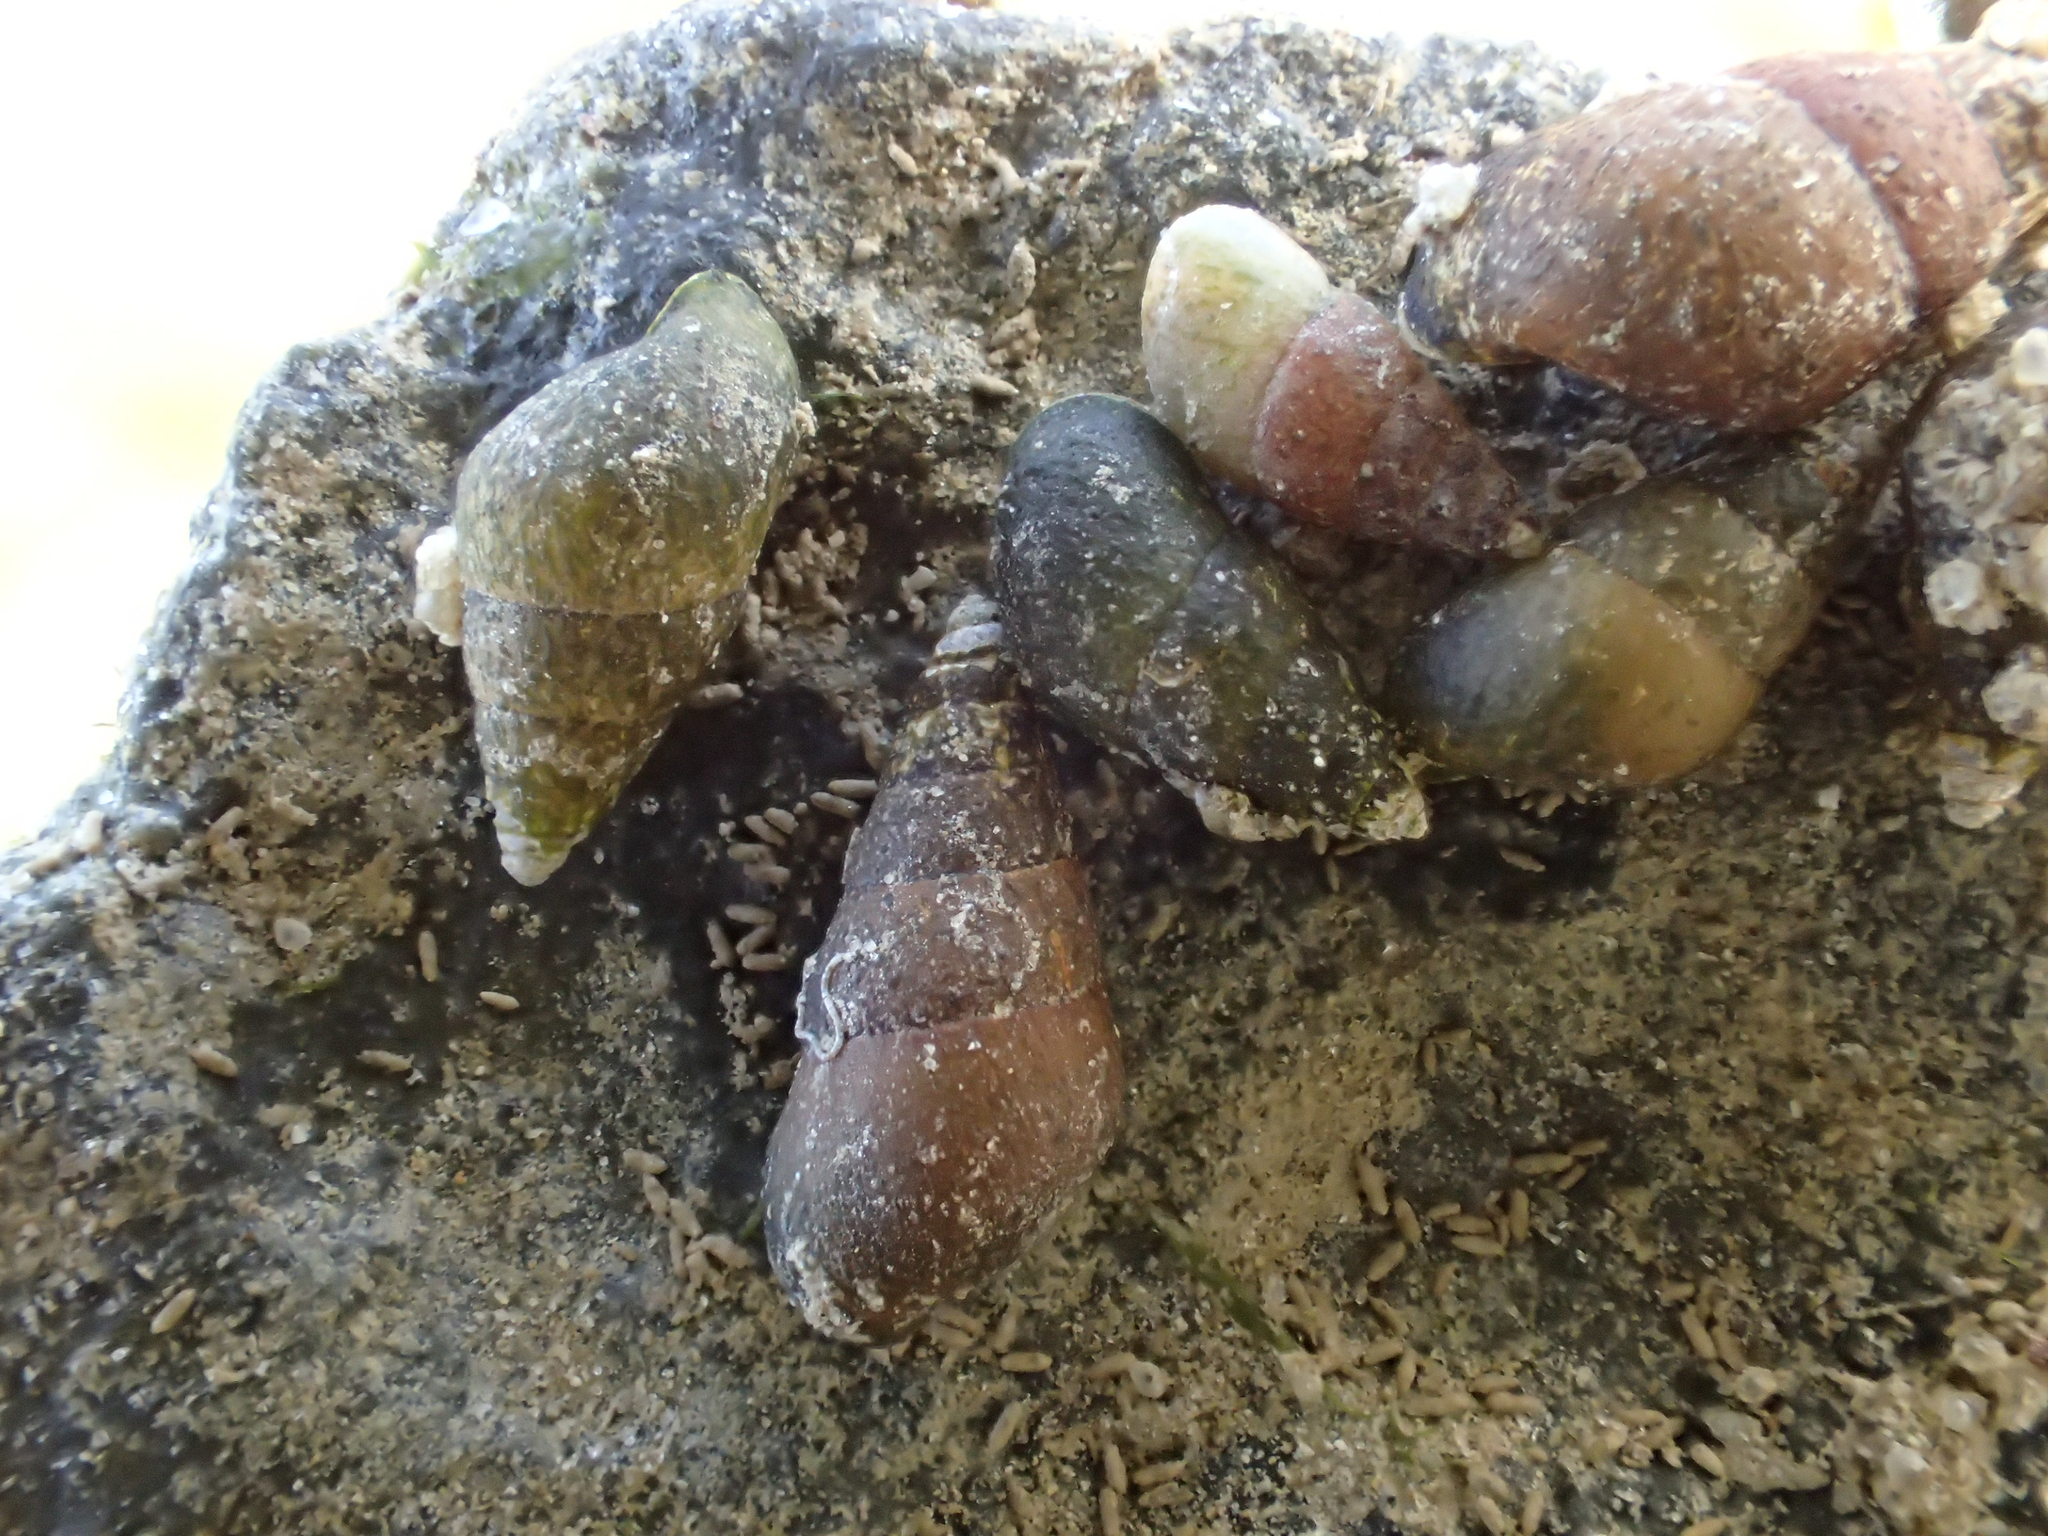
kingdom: Animalia
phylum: Mollusca
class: Gastropoda
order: Littorinimorpha
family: Hydrobiidae
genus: Peringia
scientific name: Peringia ulvae
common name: Laver spire shell
